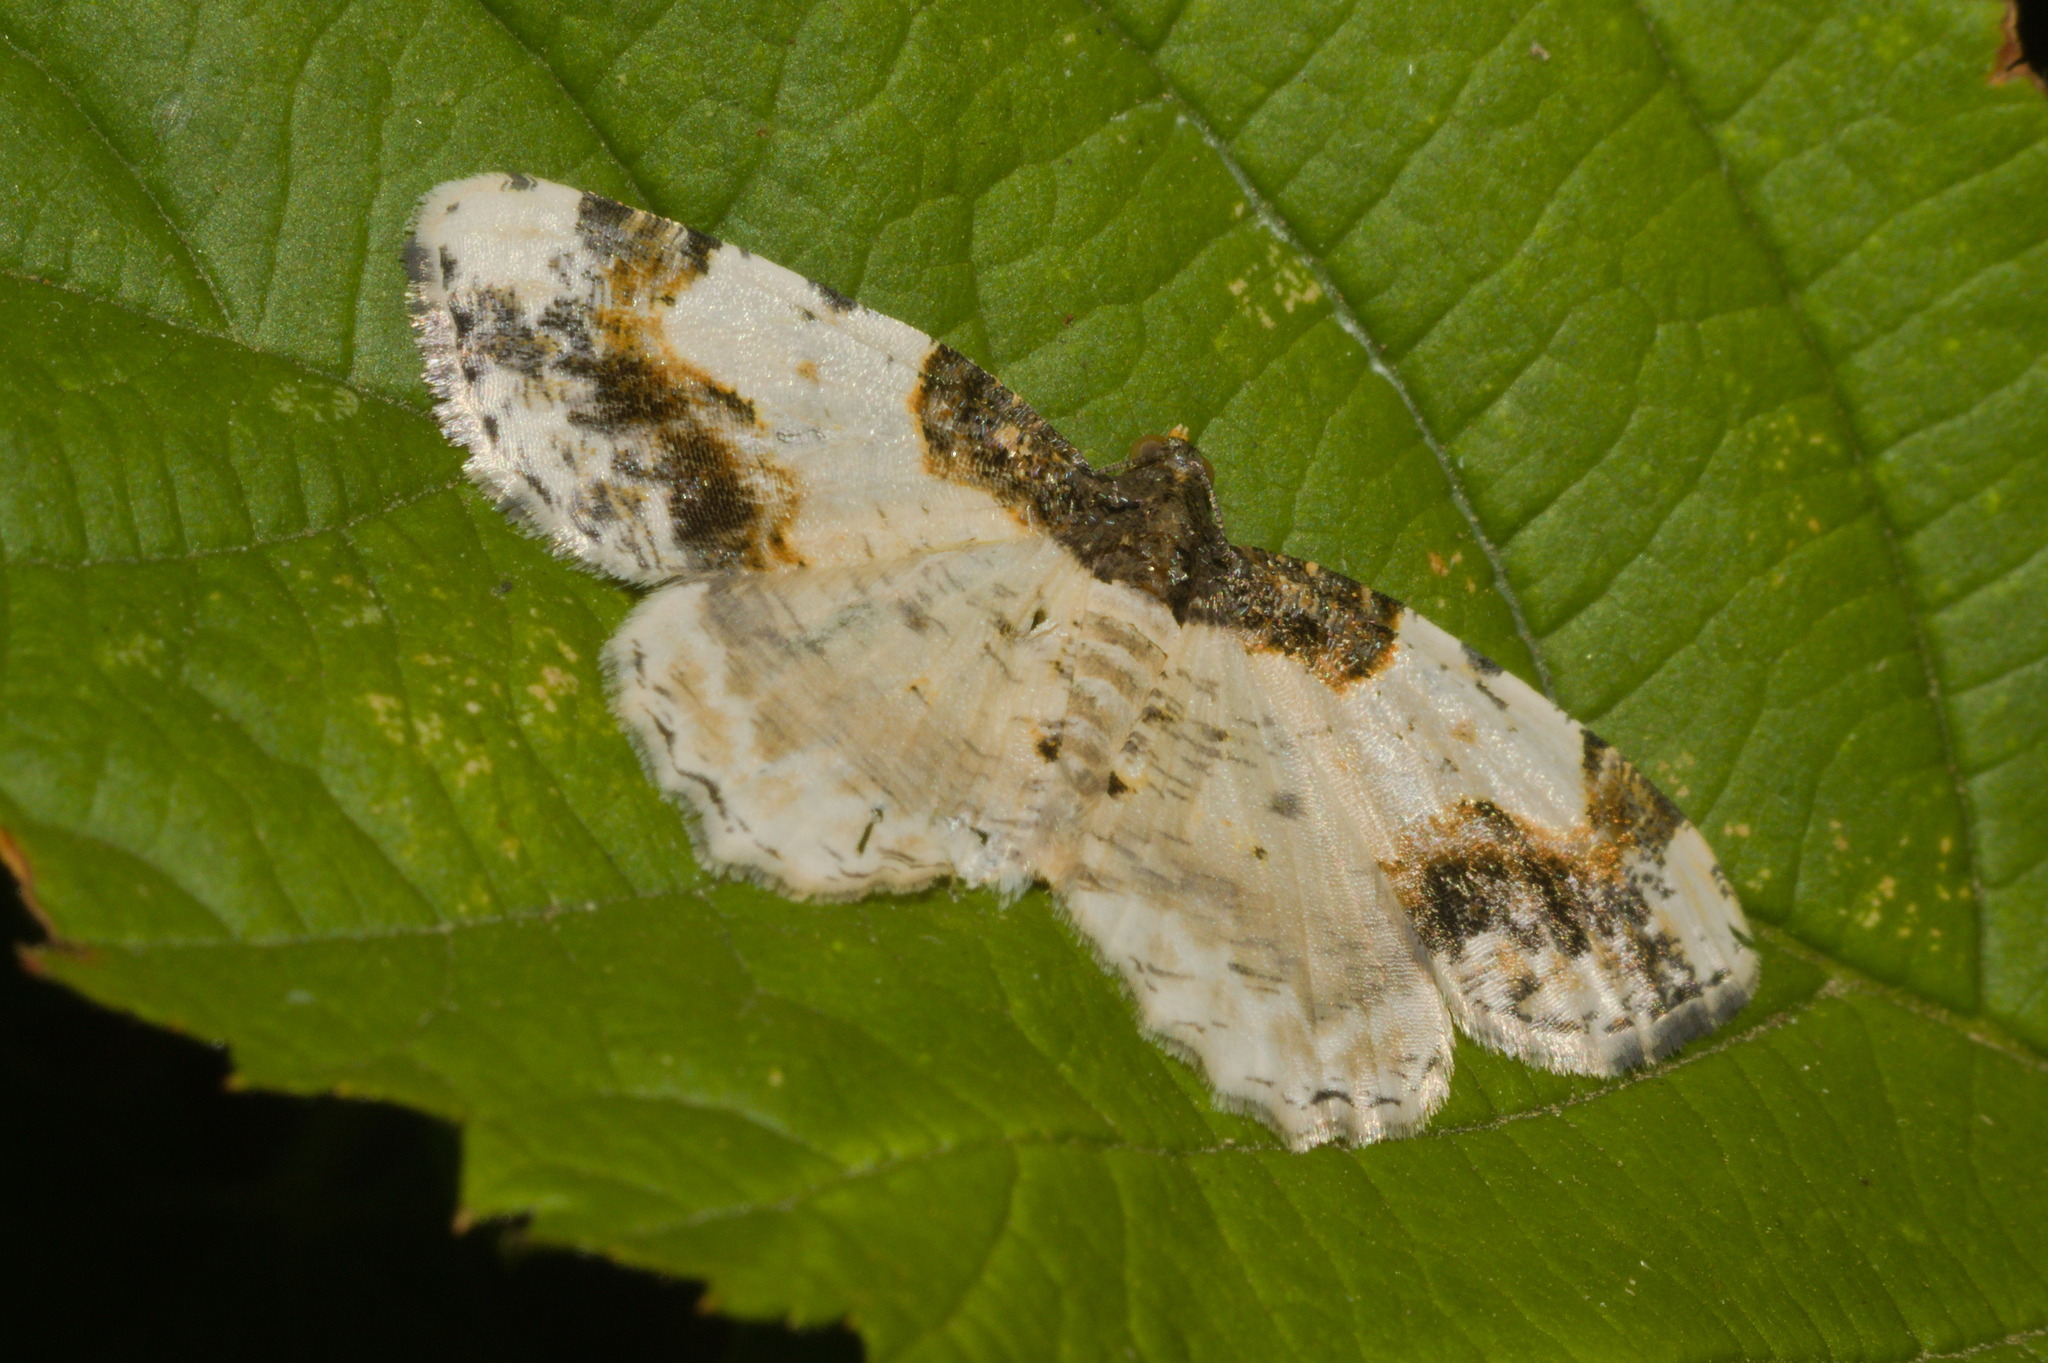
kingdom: Animalia
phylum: Arthropoda
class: Insecta
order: Lepidoptera
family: Geometridae
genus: Ligdia
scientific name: Ligdia adustata
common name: Scorched carpet
